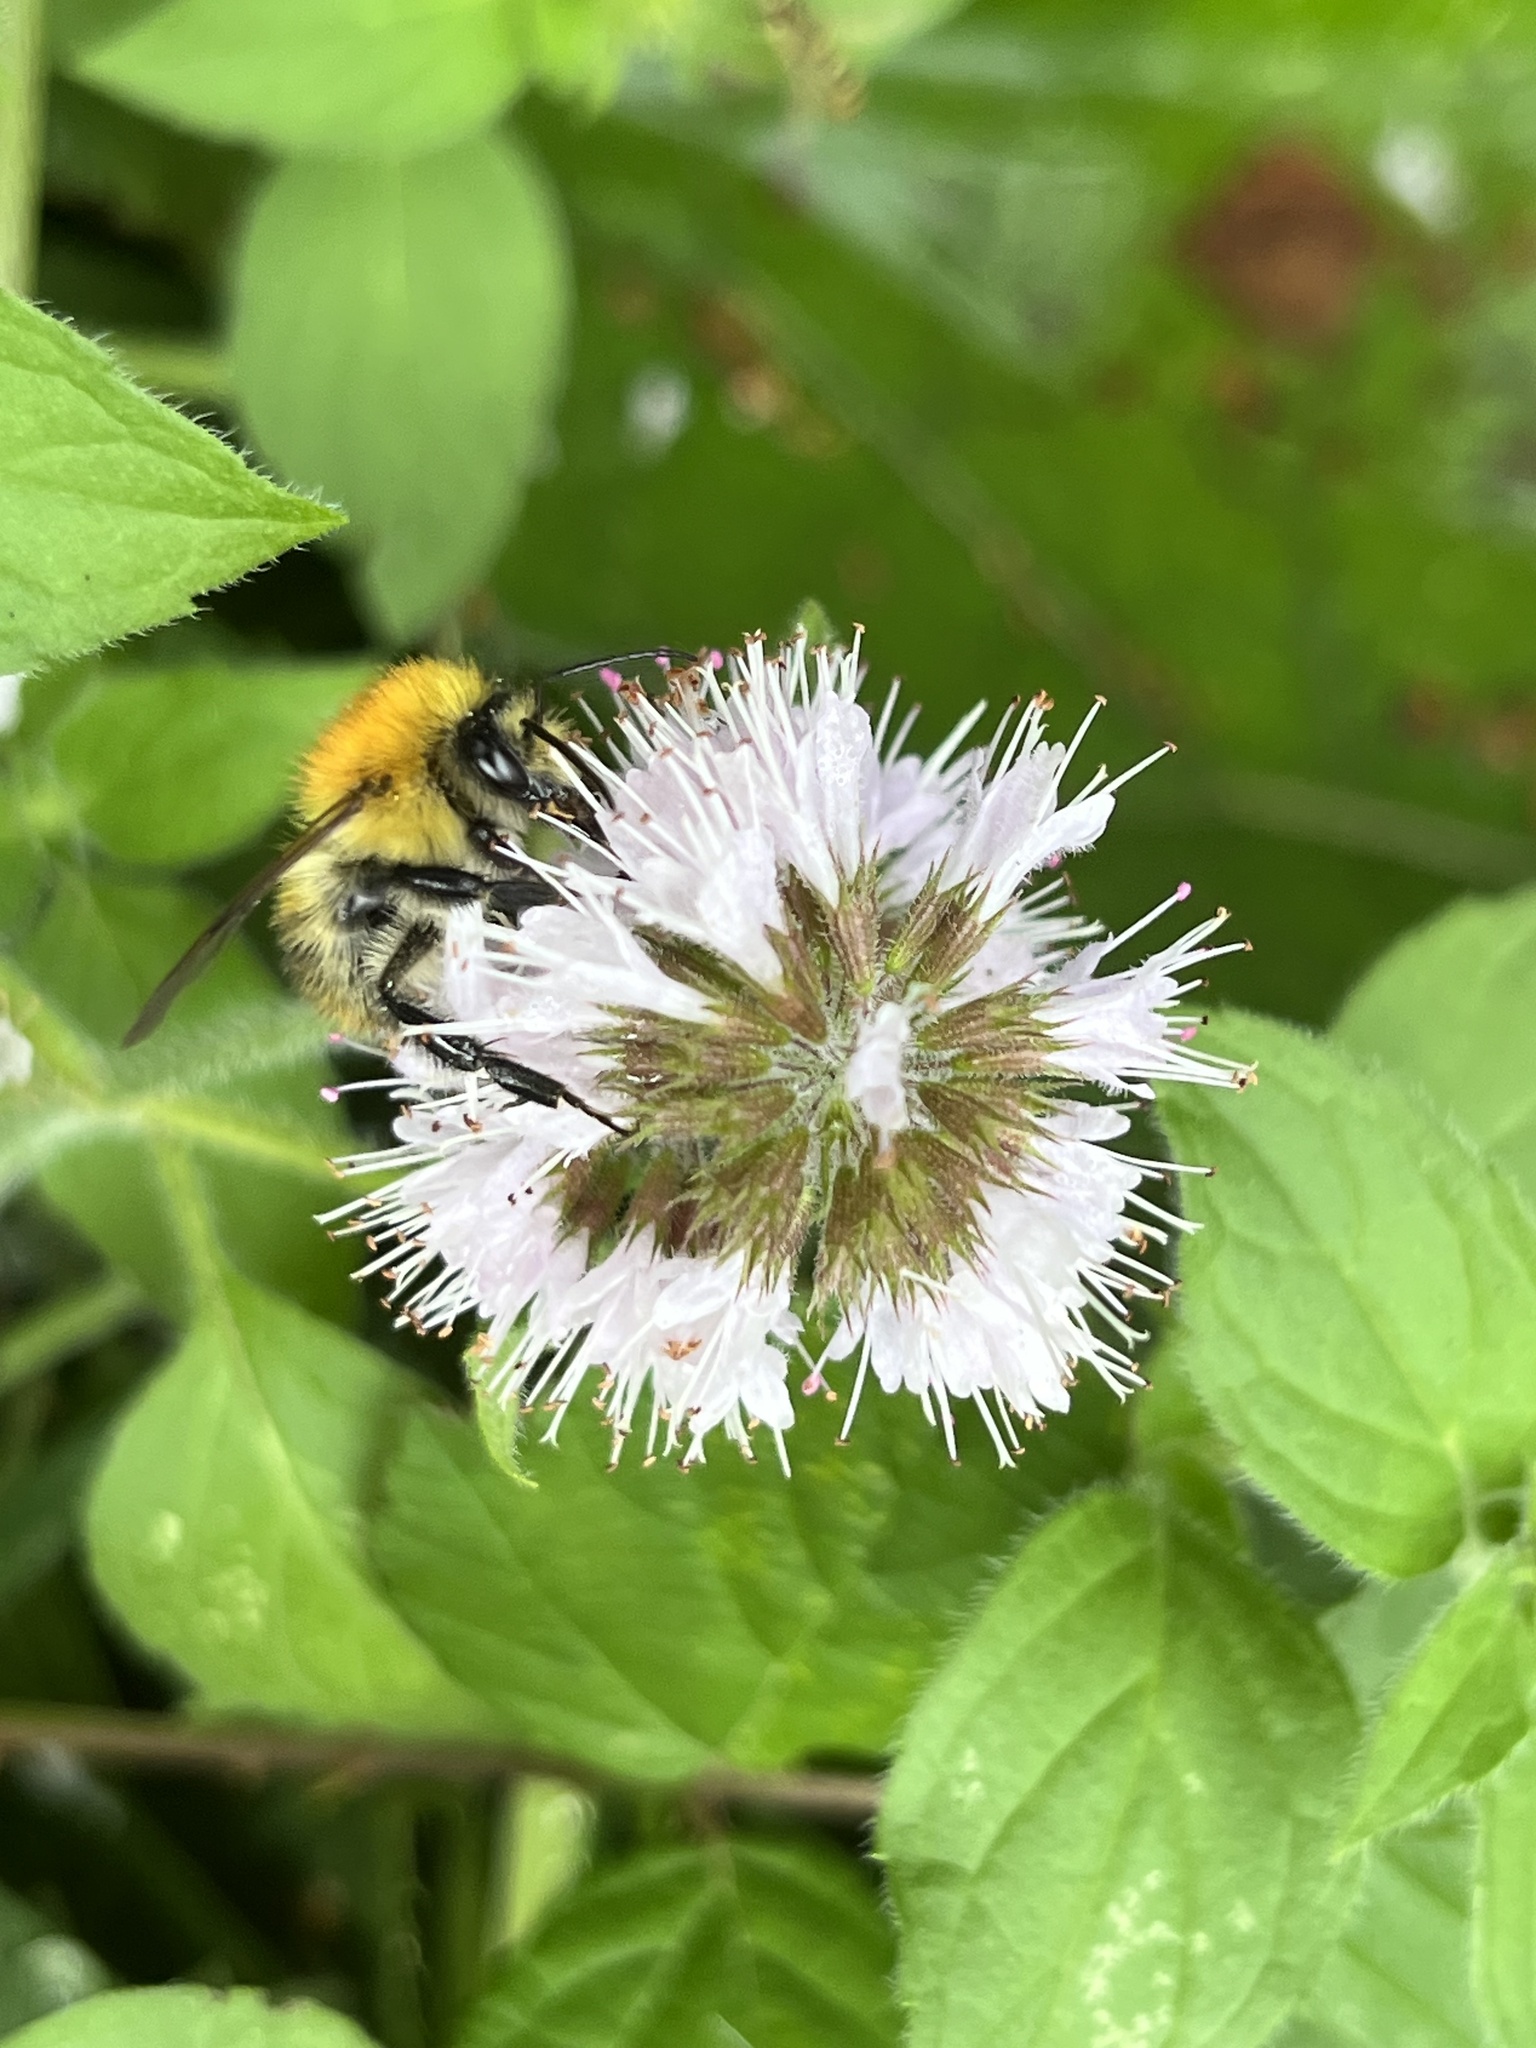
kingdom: Animalia
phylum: Arthropoda
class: Insecta
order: Hymenoptera
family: Apidae
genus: Bombus
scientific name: Bombus pascuorum
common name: Common carder bee
